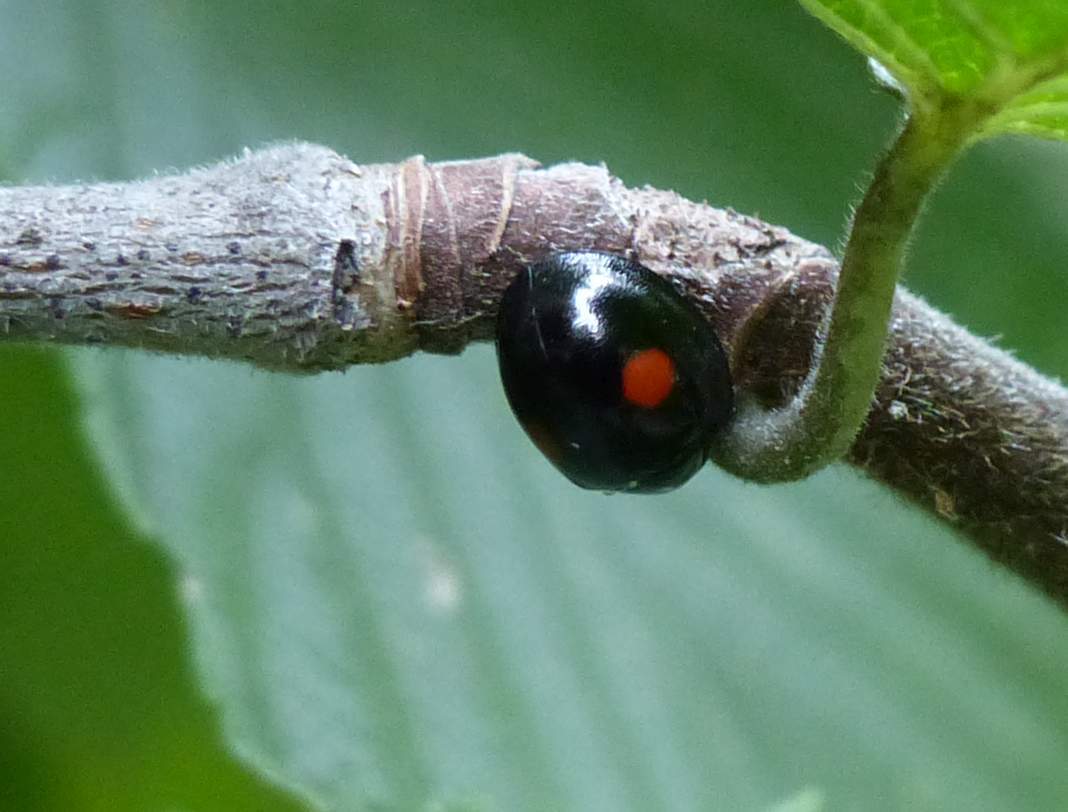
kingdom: Animalia
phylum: Arthropoda
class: Insecta
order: Coleoptera
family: Coccinellidae
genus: Chilocorus
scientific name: Chilocorus stigma
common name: Twicestabbed lady beetle
